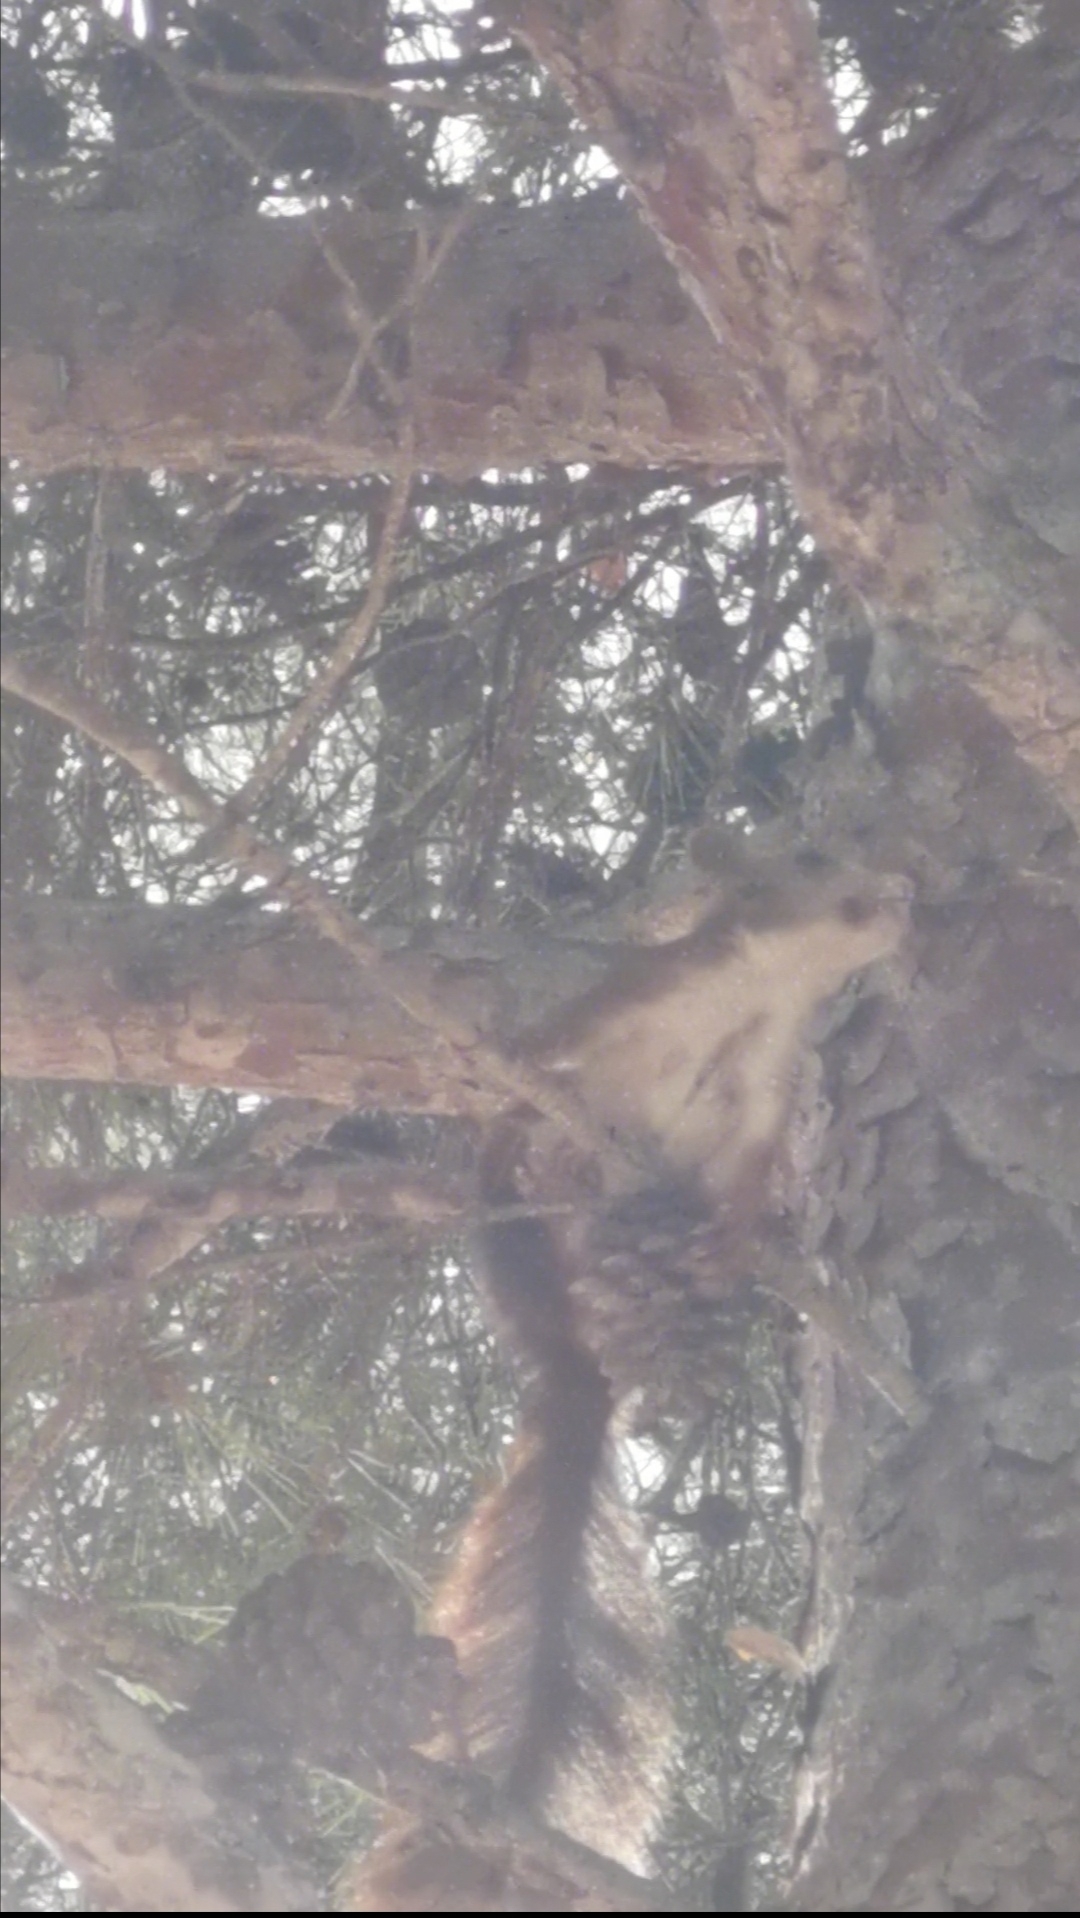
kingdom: Animalia
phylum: Chordata
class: Mammalia
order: Rodentia
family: Sciuridae
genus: Sciurus
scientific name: Sciurus vulgaris
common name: Eurasian red squirrel
